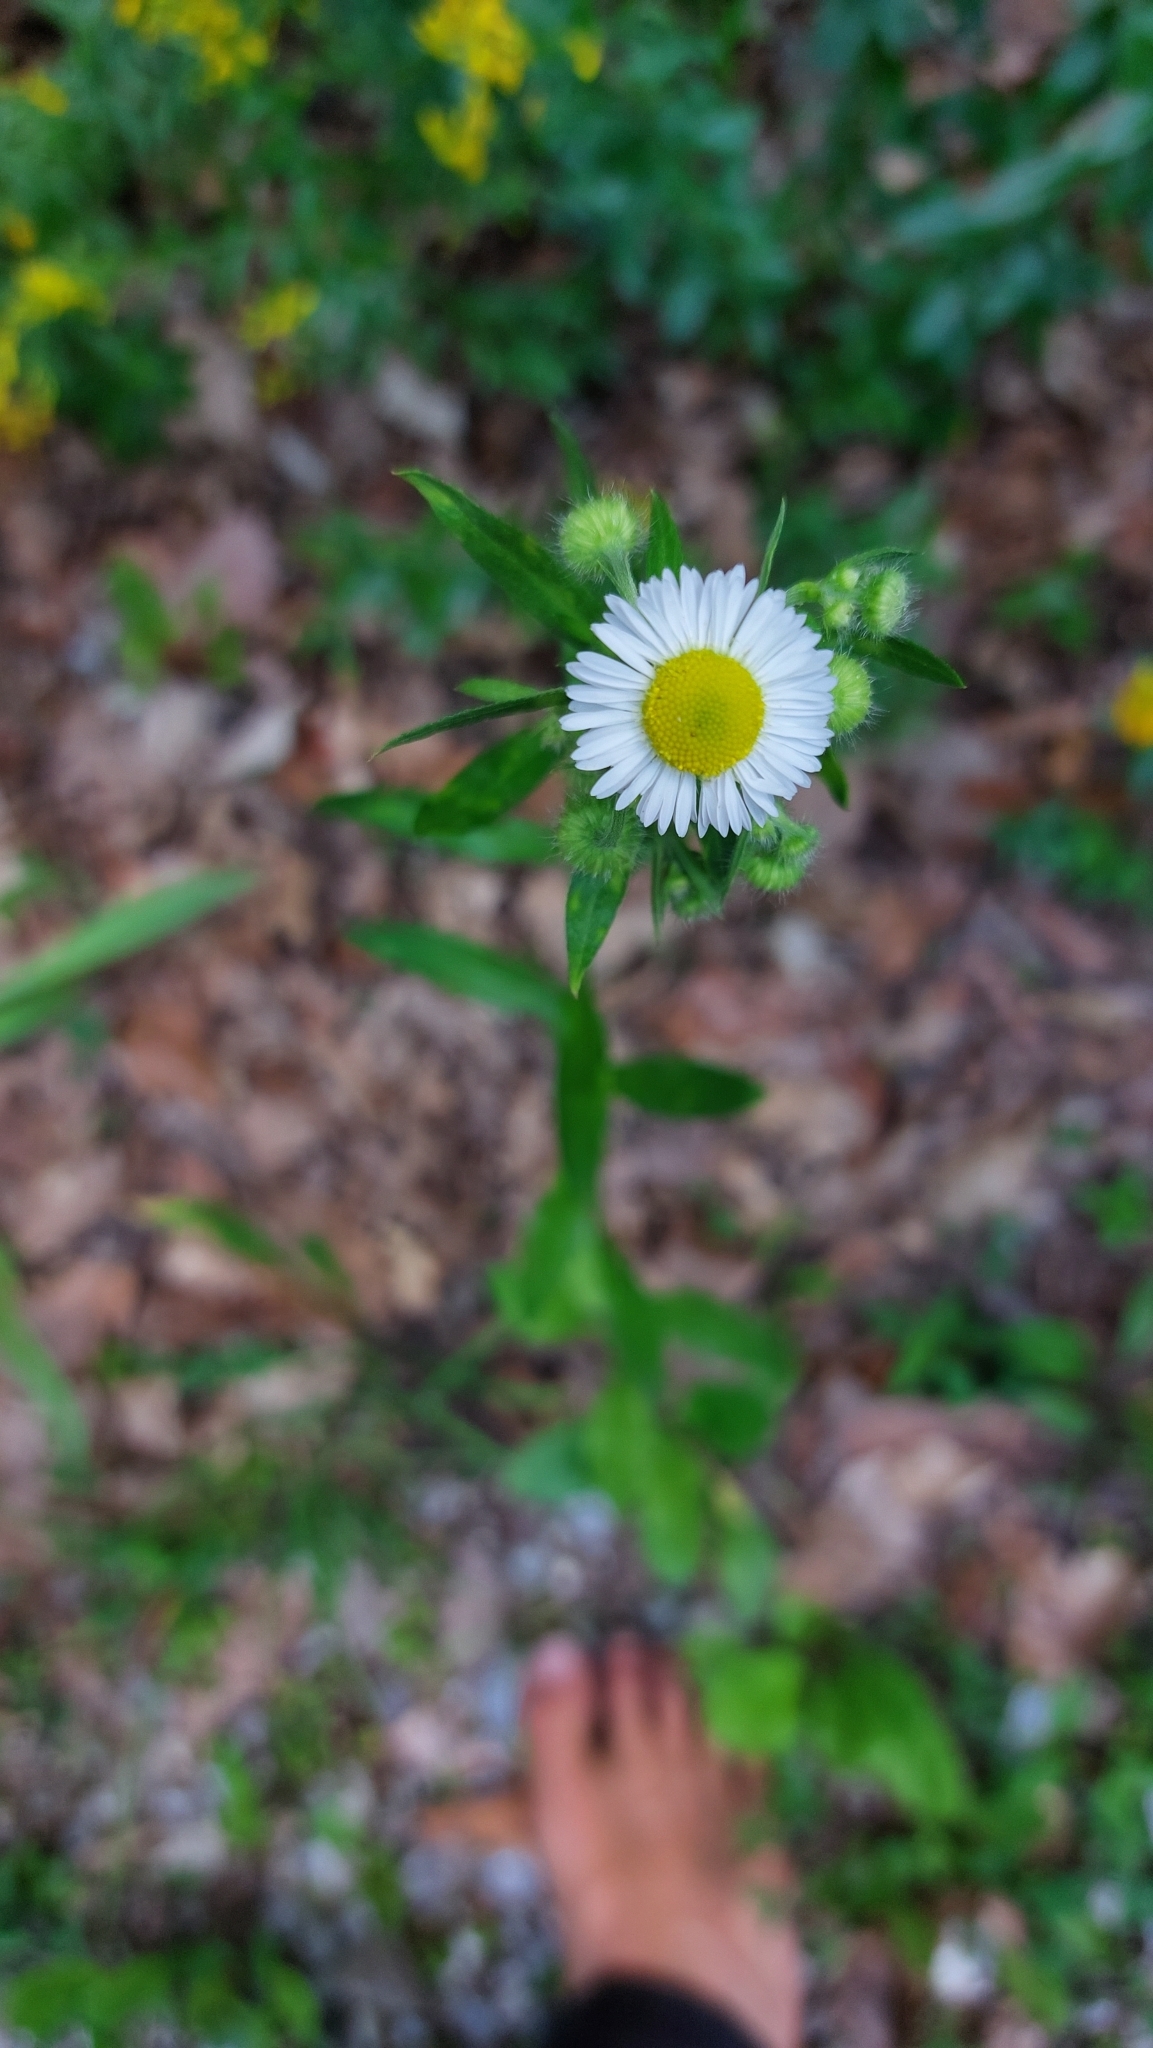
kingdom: Plantae
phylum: Tracheophyta
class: Magnoliopsida
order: Asterales
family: Asteraceae
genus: Erigeron
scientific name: Erigeron annuus
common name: Tall fleabane
